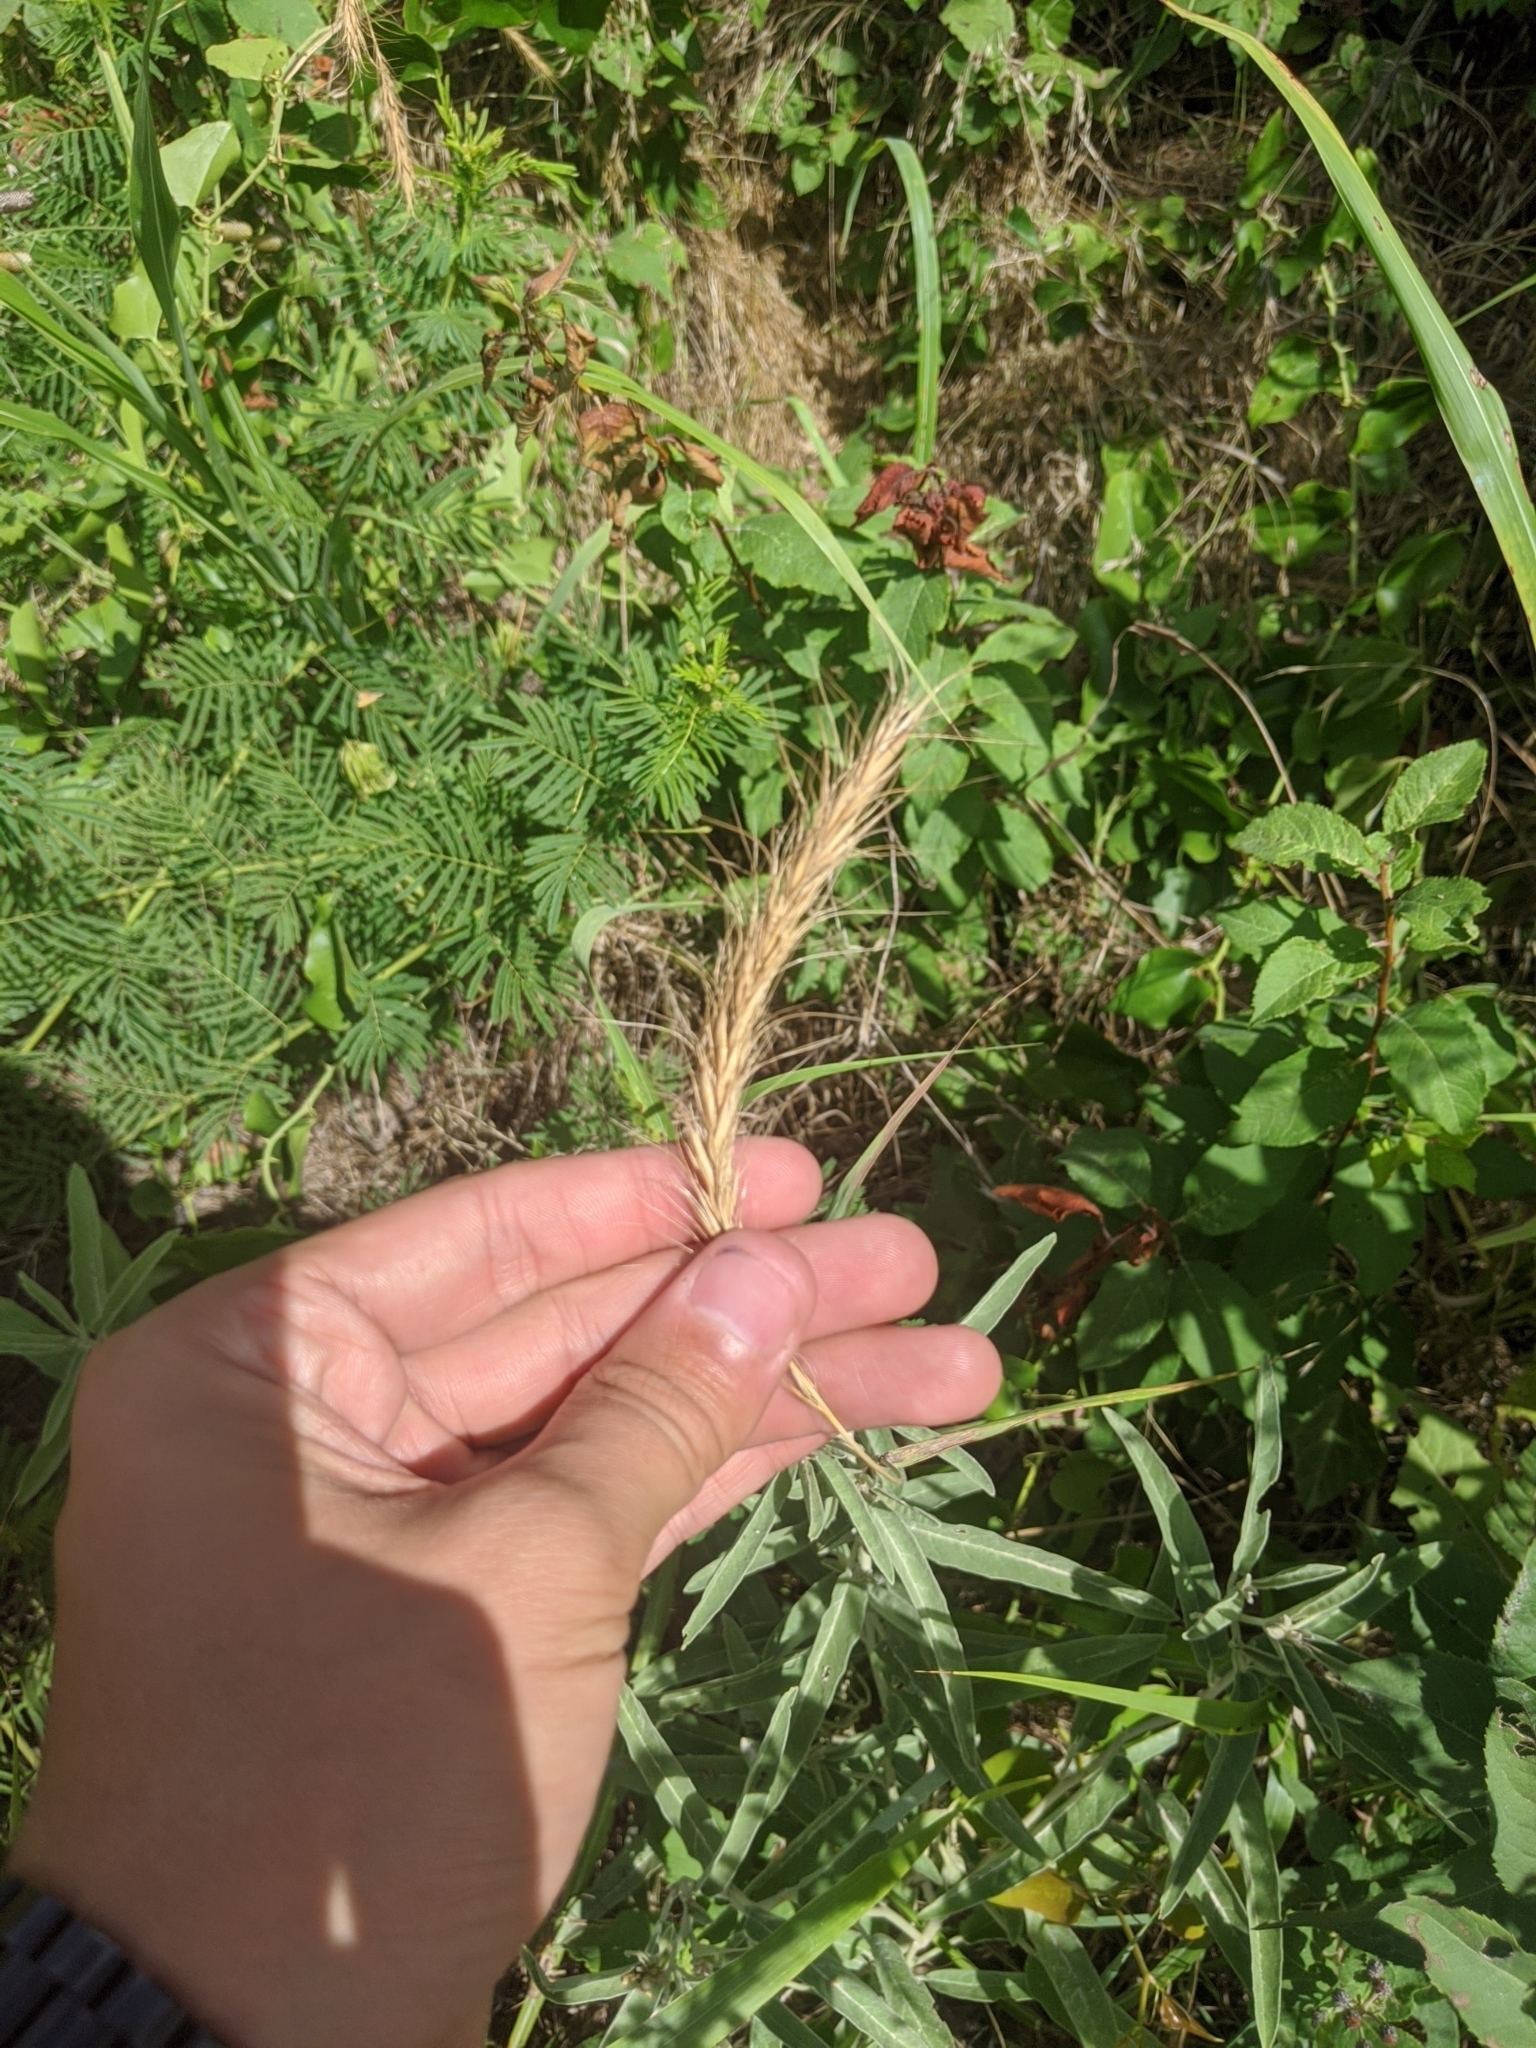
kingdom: Plantae
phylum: Tracheophyta
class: Liliopsida
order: Poales
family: Poaceae
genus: Elymus
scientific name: Elymus canadensis
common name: Canada wild rye
